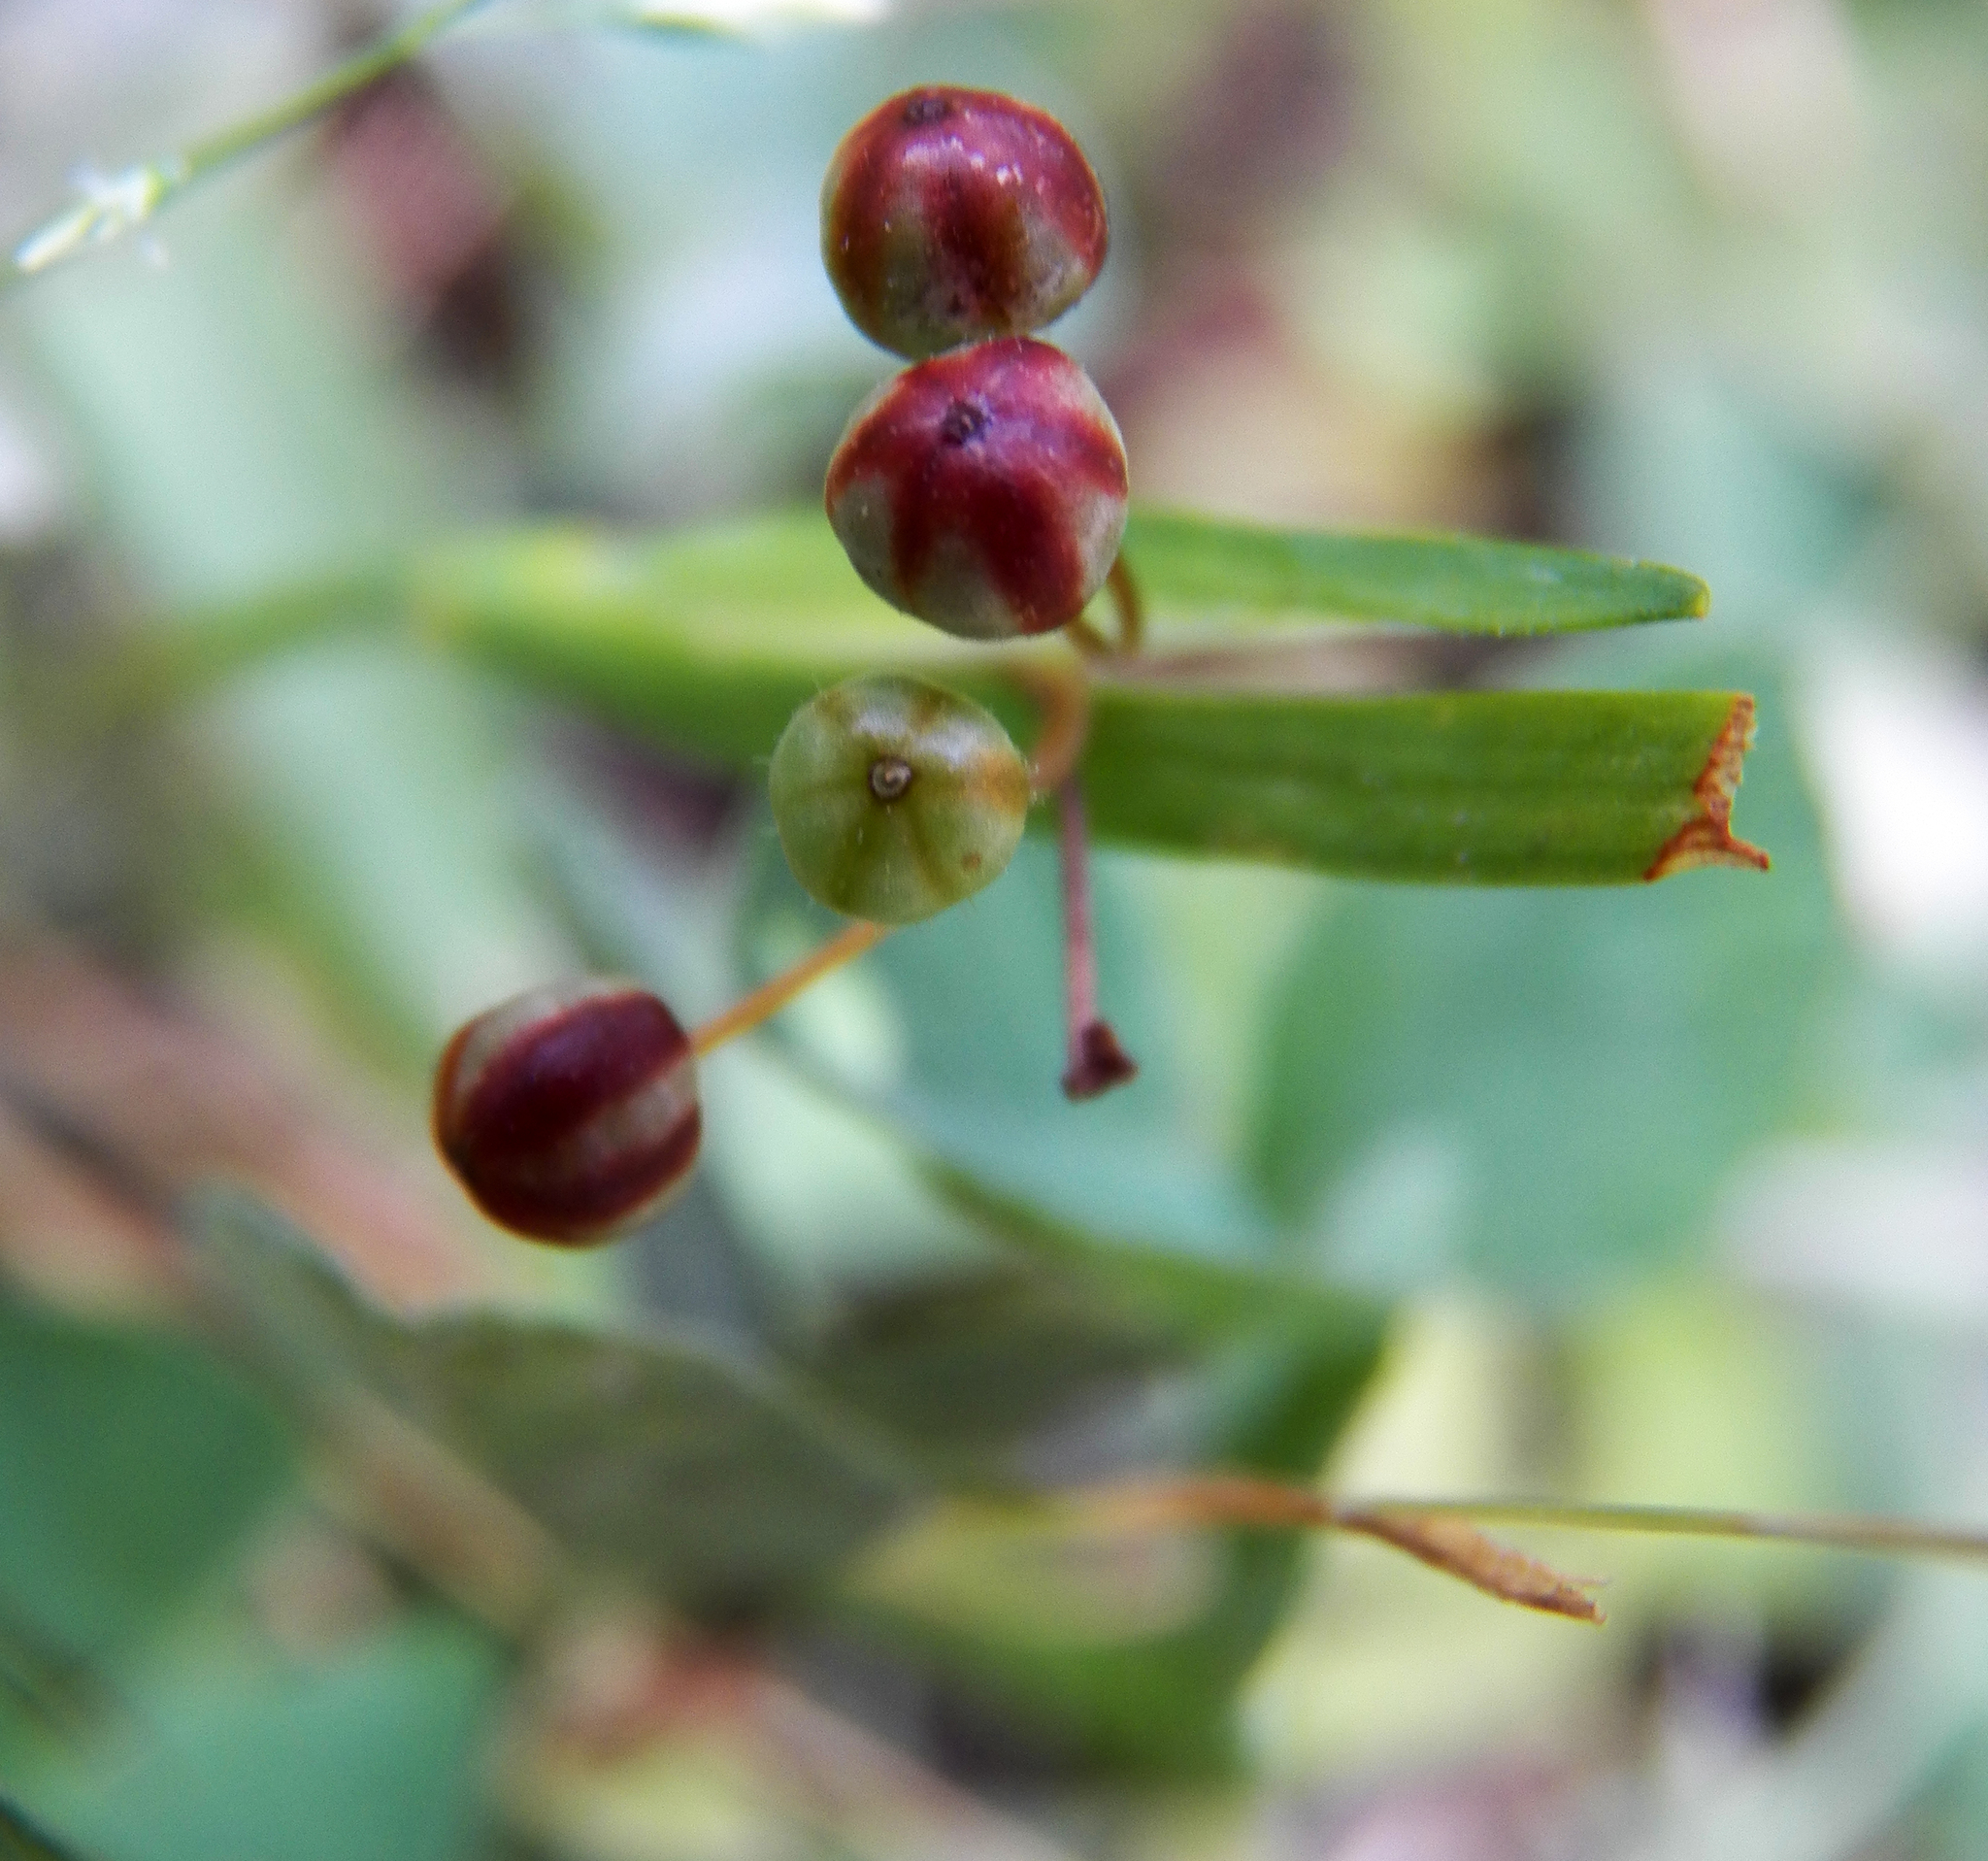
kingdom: Plantae
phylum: Tracheophyta
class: Liliopsida
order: Asparagales
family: Iridaceae
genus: Sisyrinchium
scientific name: Sisyrinchium micranthum
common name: Bermuda pigroot
